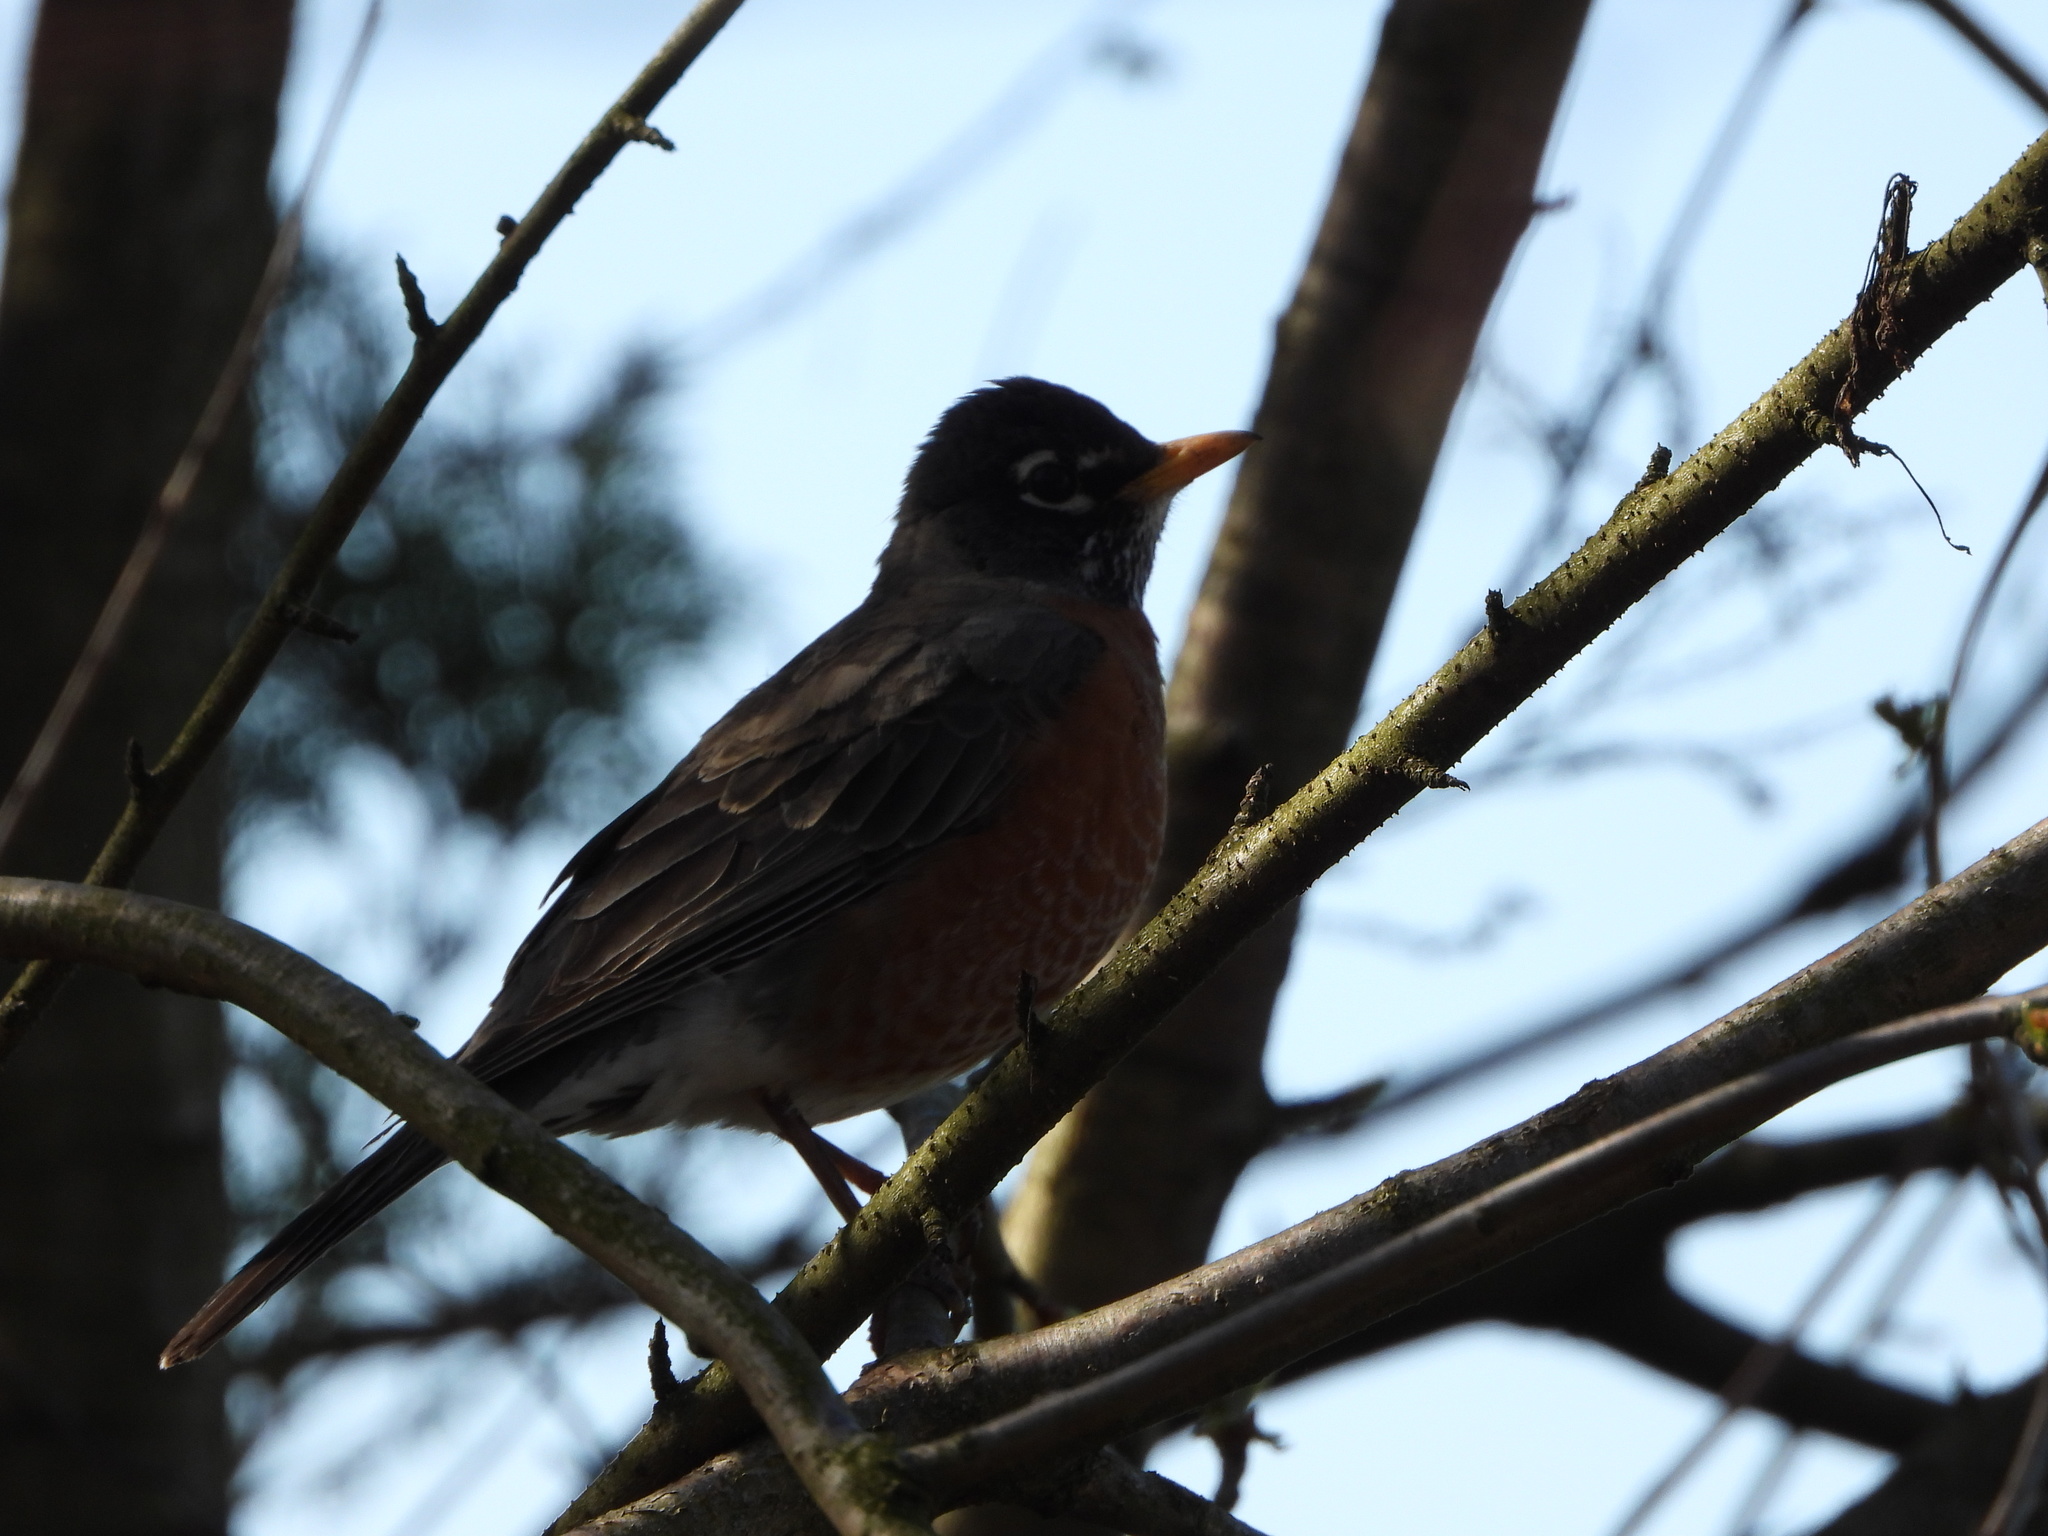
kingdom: Animalia
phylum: Chordata
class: Aves
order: Passeriformes
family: Turdidae
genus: Turdus
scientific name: Turdus migratorius
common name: American robin
